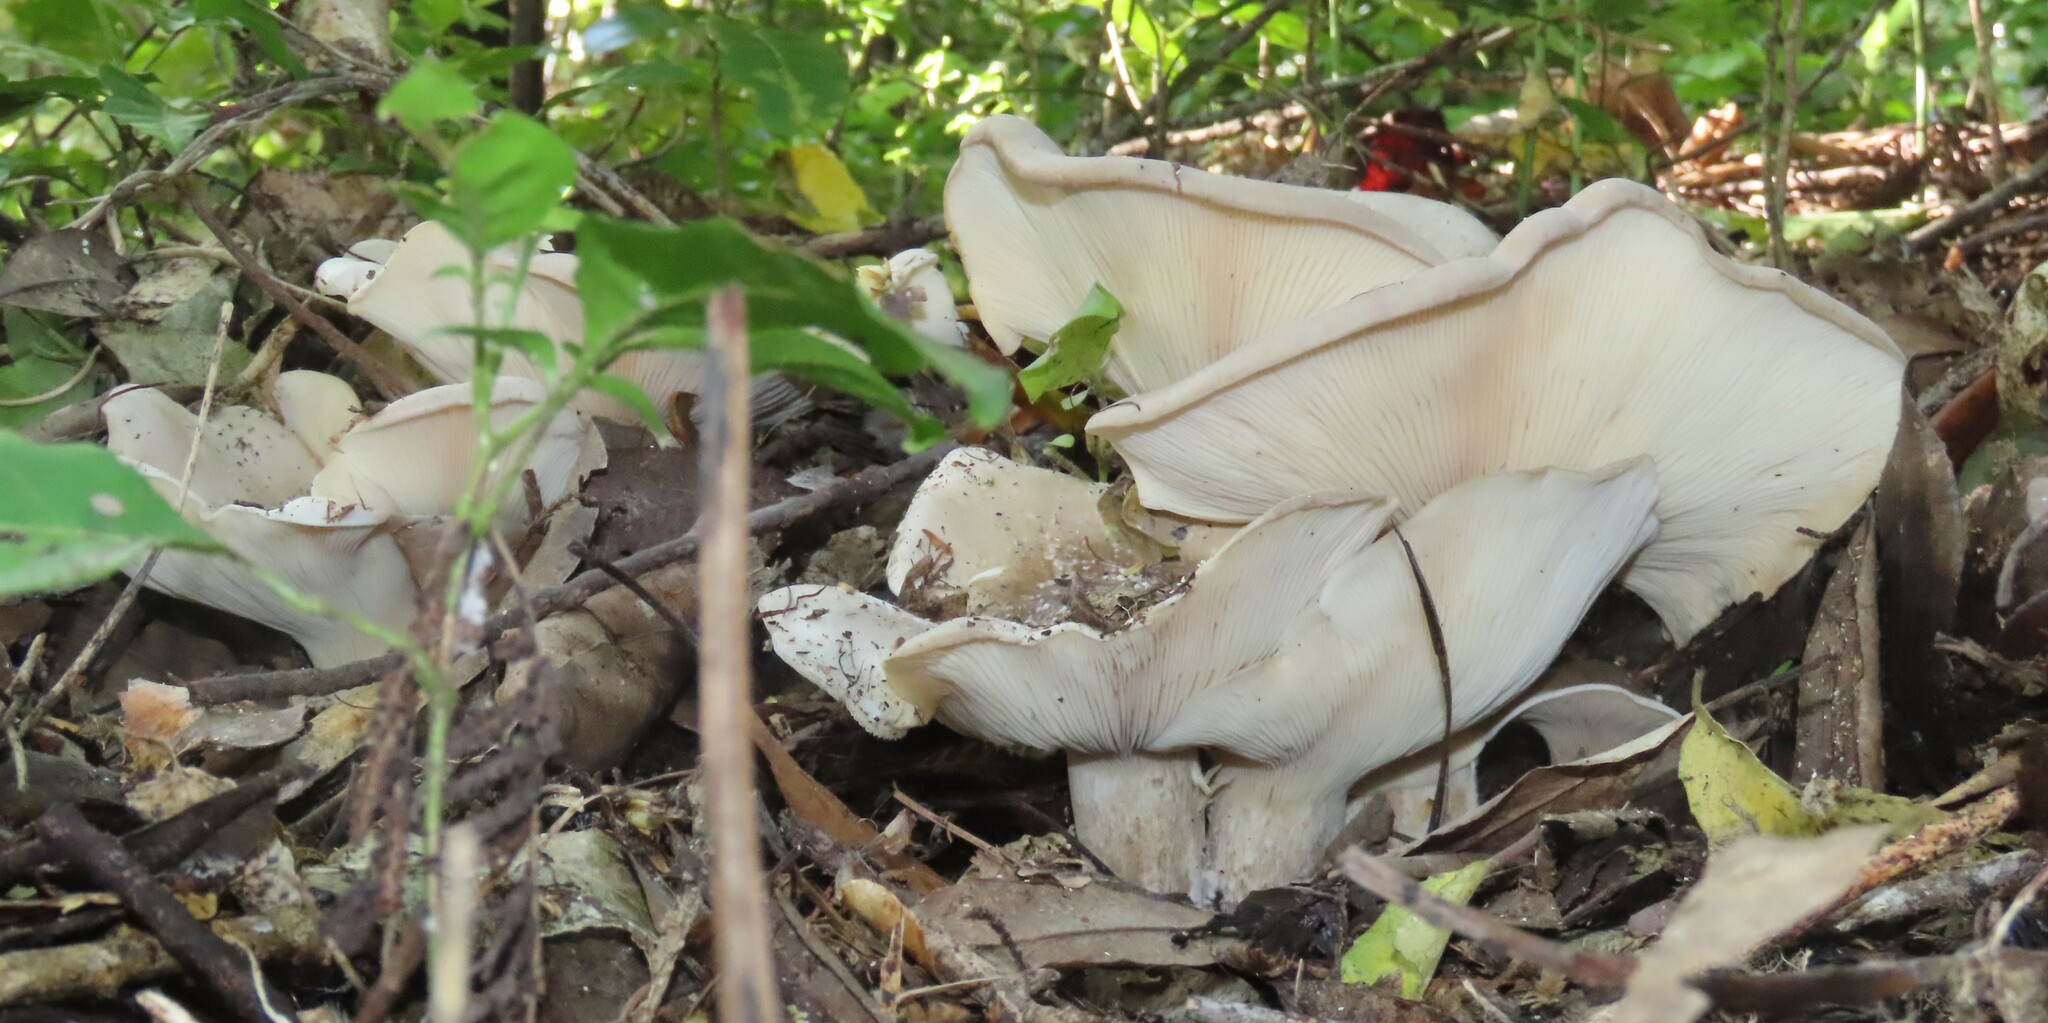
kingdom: Fungi
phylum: Basidiomycota
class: Agaricomycetes
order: Agaricales
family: Tricholomataceae
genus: Clitocybe
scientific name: Clitocybe nebularis
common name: Clouded agaric
